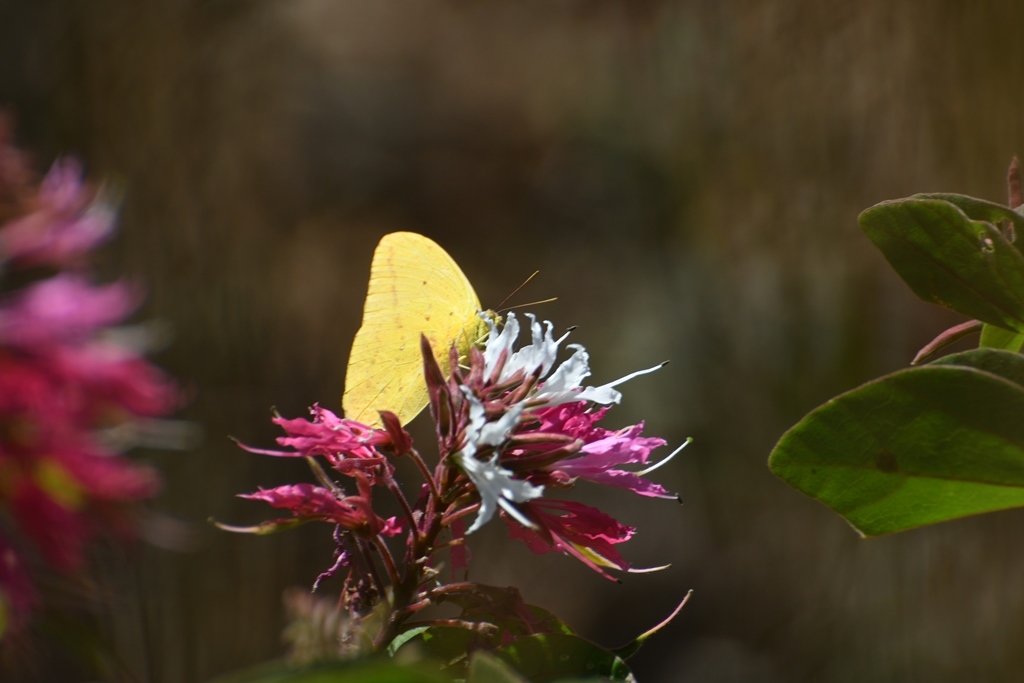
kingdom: Animalia
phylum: Arthropoda
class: Insecta
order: Lepidoptera
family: Pieridae
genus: Phoebis
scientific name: Phoebis agarithe
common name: Large orange sulphur
